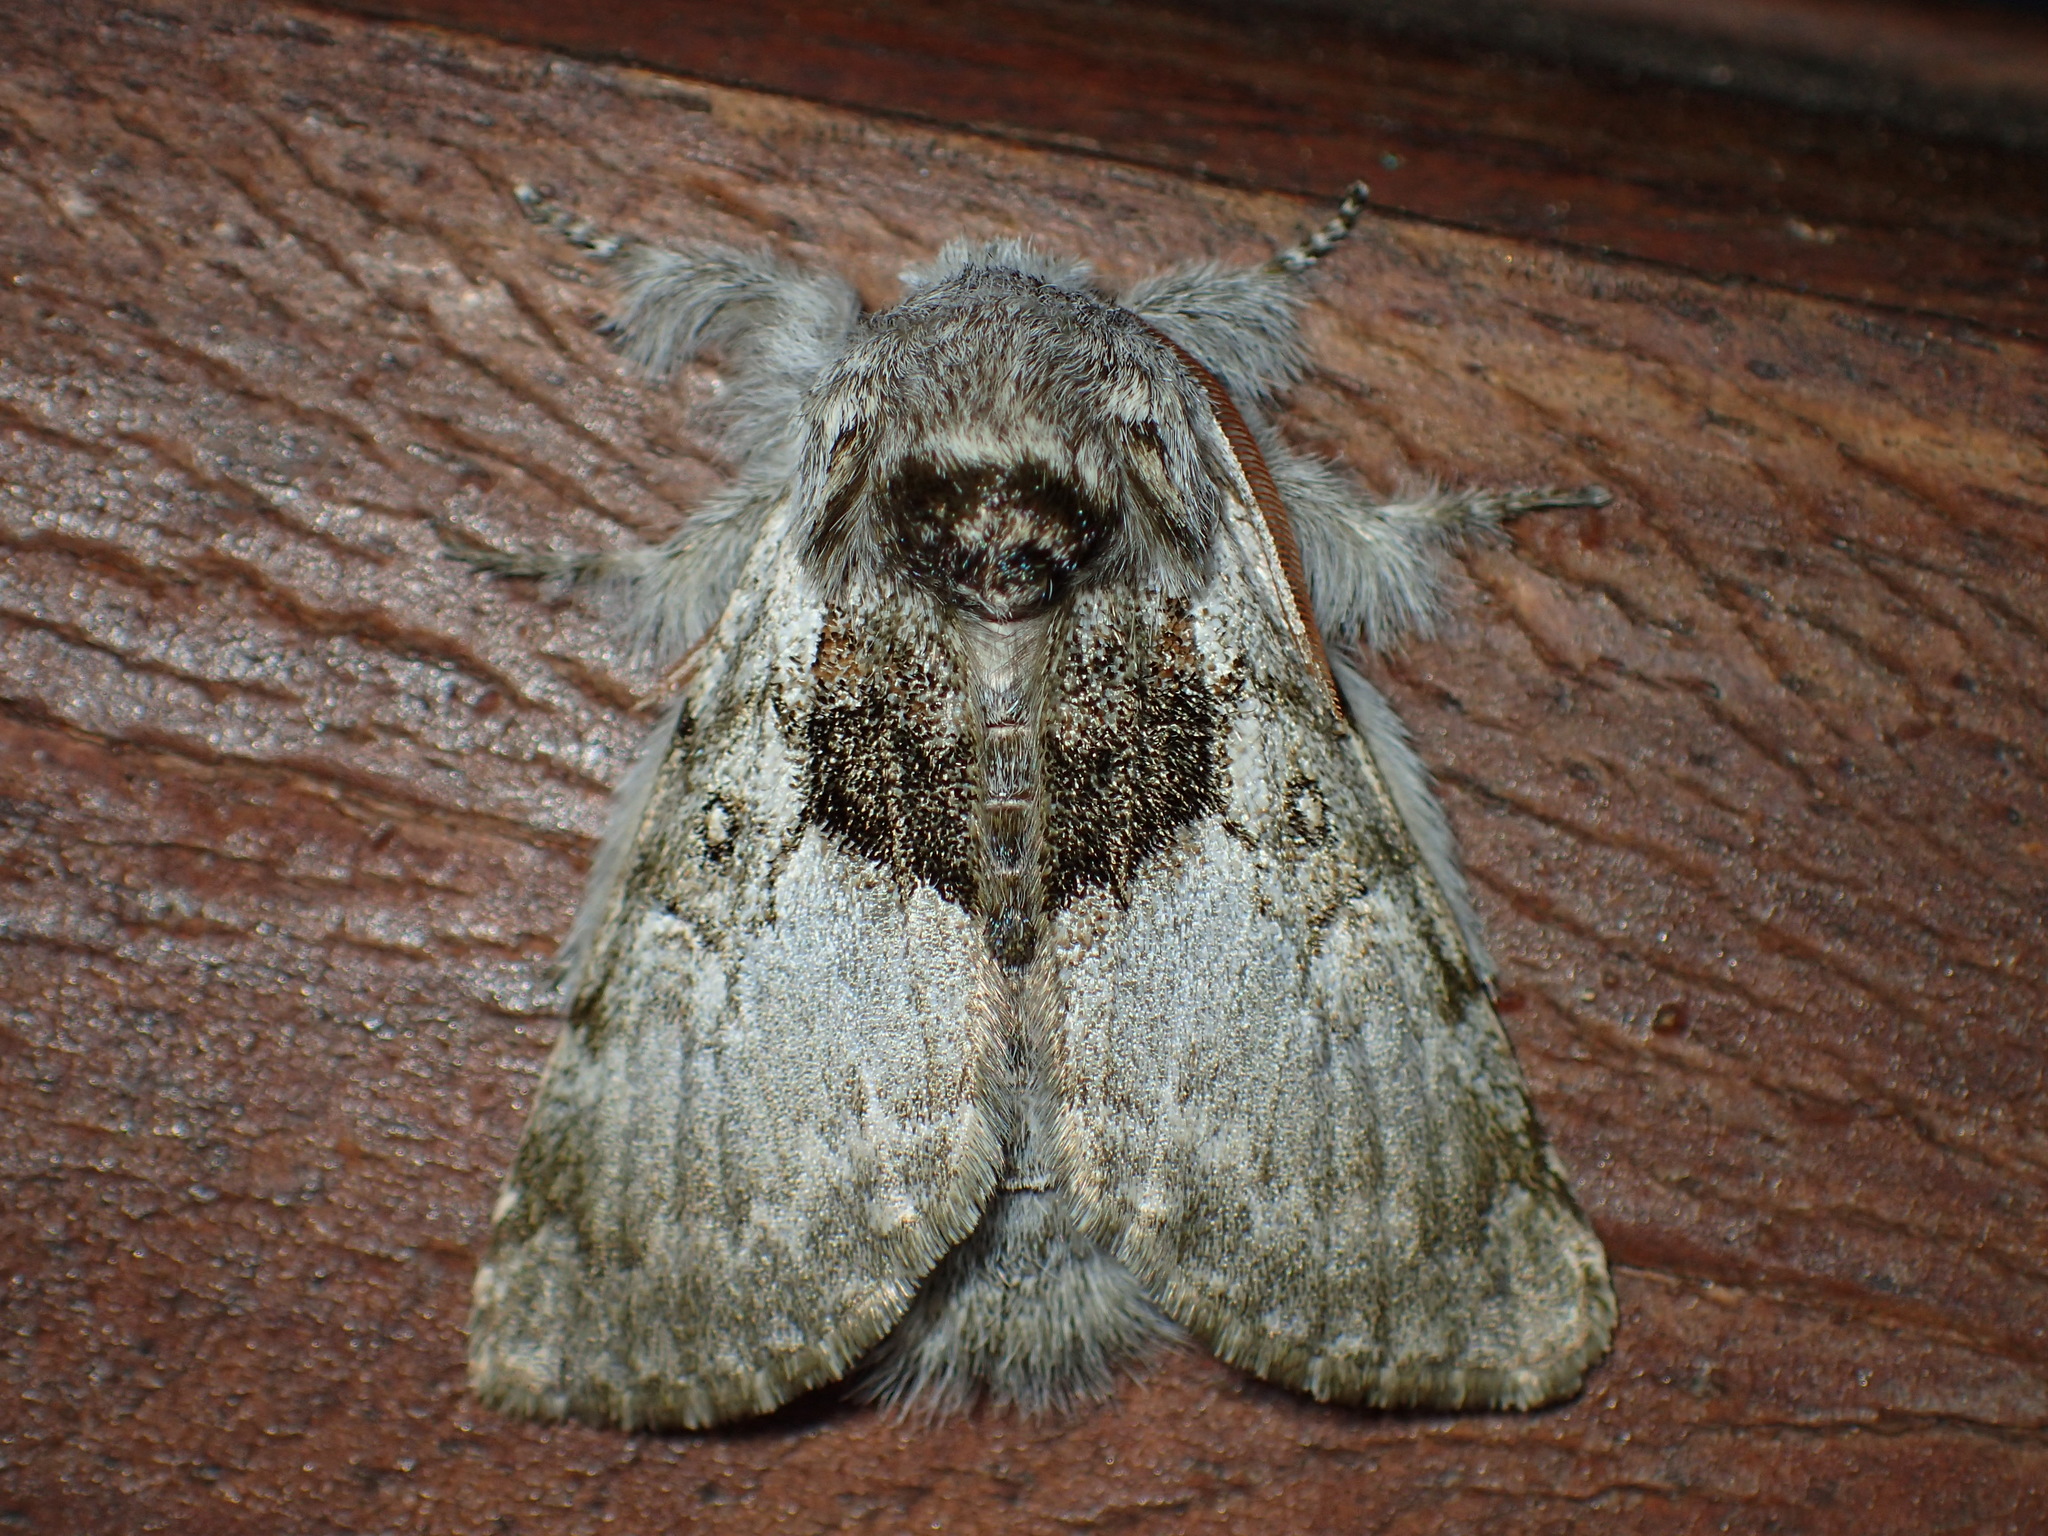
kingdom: Animalia
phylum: Arthropoda
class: Insecta
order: Lepidoptera
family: Noctuidae
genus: Colocasia
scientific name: Colocasia flavicornis
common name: Saddled yellowhorn
